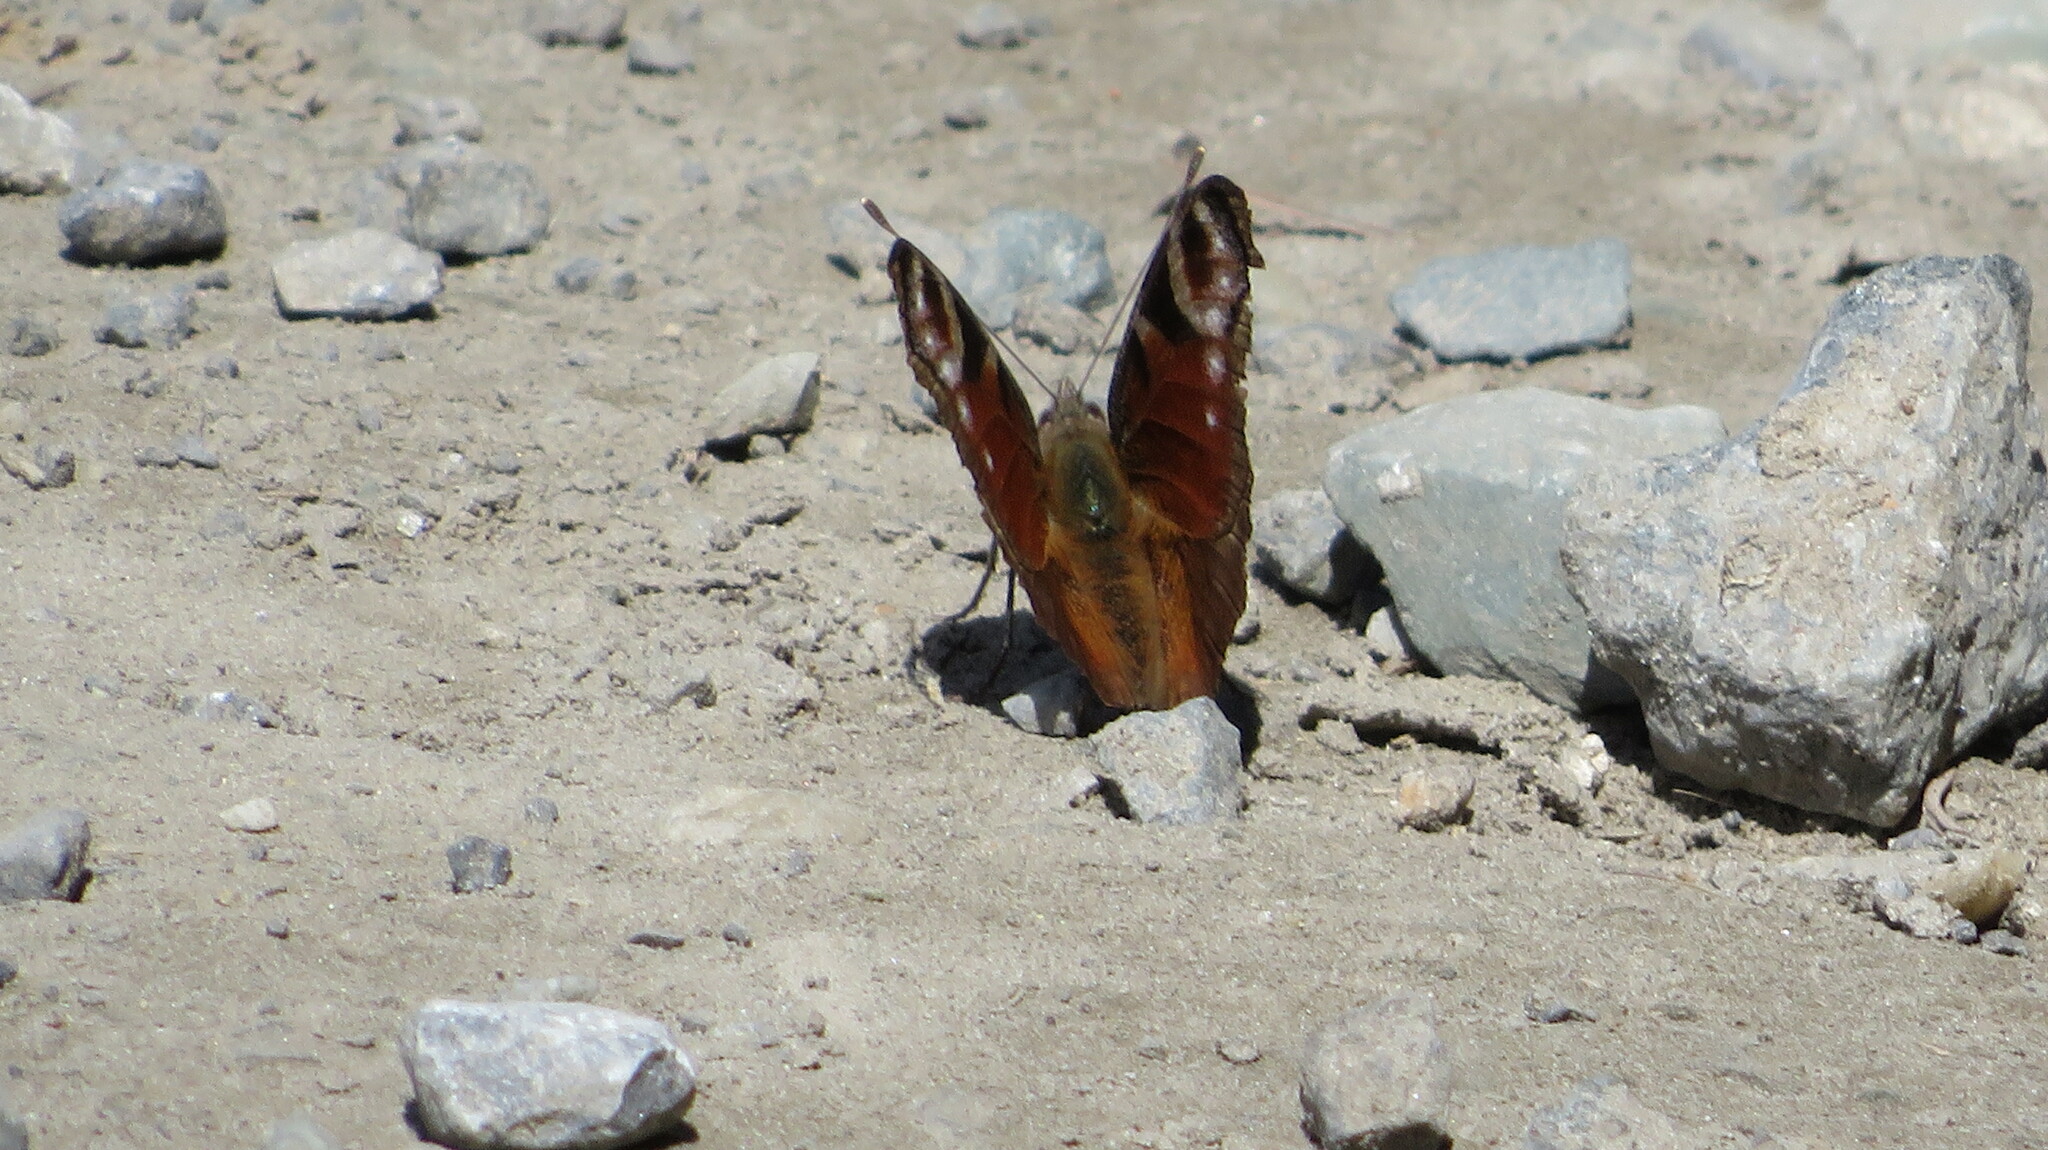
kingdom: Animalia
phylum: Arthropoda
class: Insecta
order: Lepidoptera
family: Nymphalidae
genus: Aglais
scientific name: Aglais io
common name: Peacock
